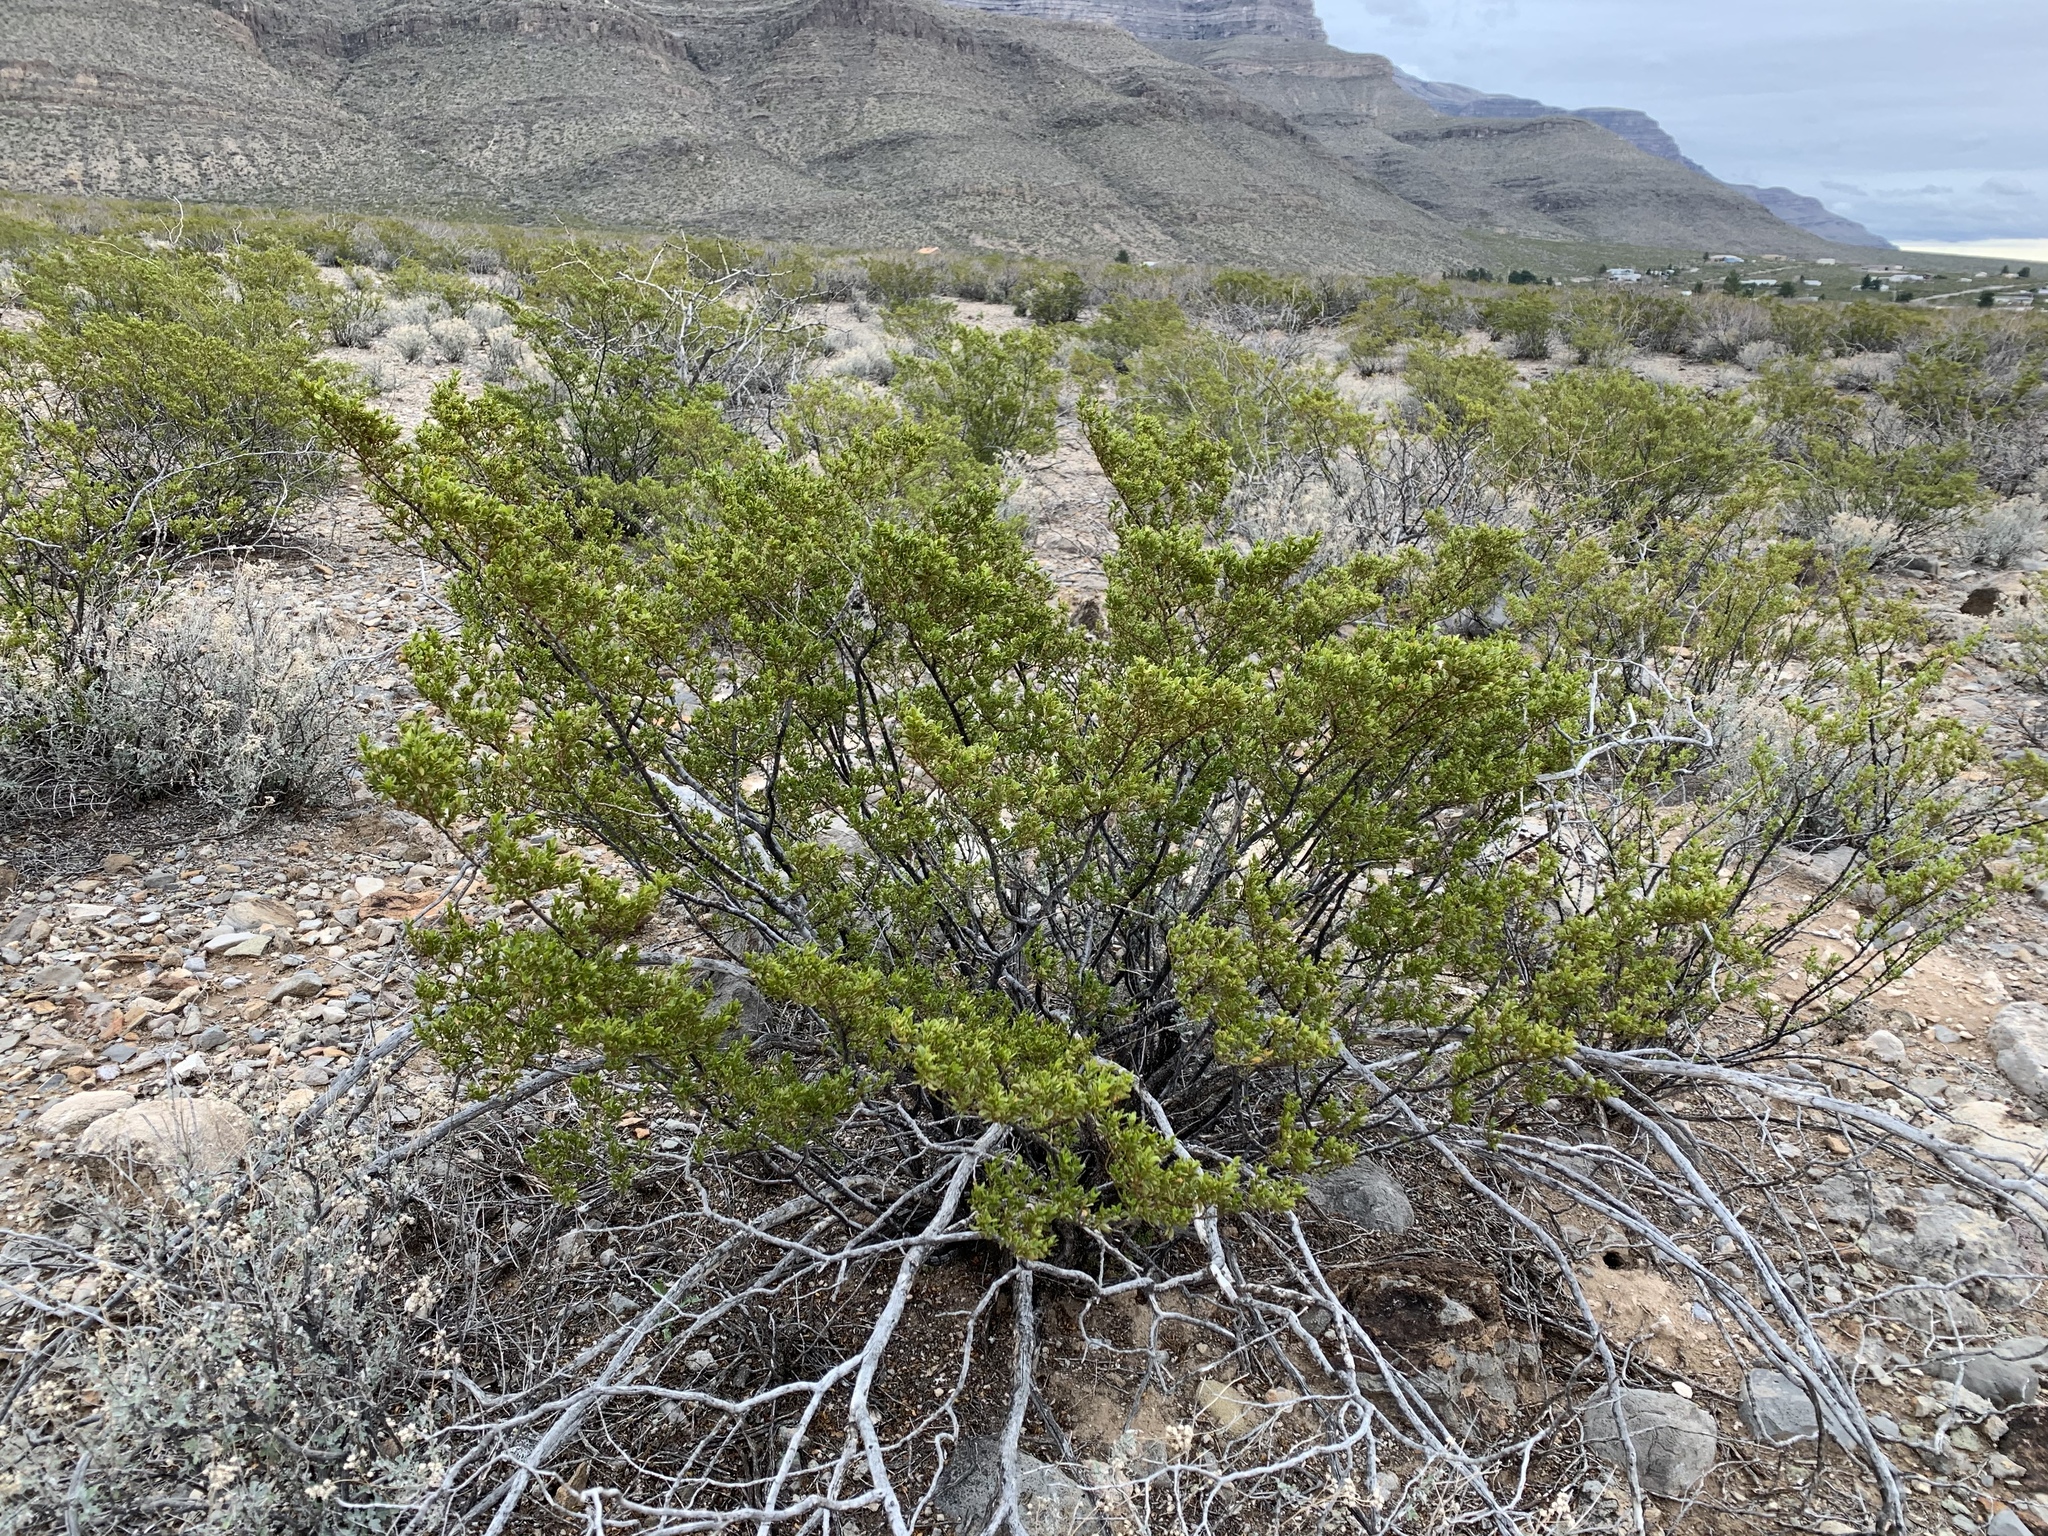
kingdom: Plantae
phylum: Tracheophyta
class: Magnoliopsida
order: Zygophyllales
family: Zygophyllaceae
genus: Larrea
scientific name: Larrea tridentata
